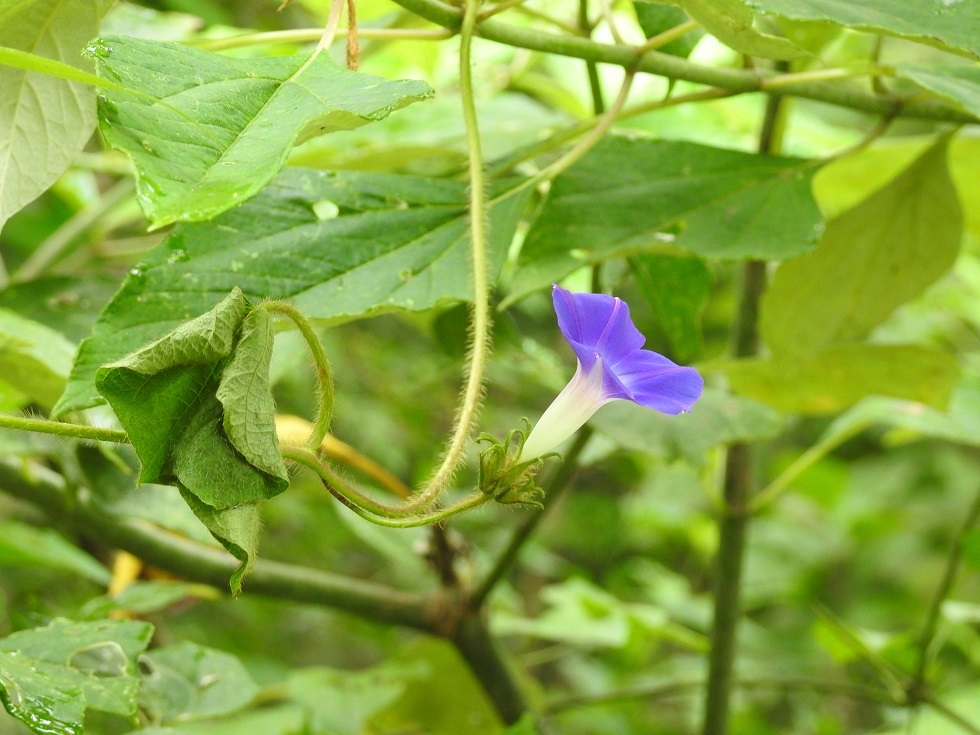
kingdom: Plantae
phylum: Tracheophyta
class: Magnoliopsida
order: Solanales
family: Convolvulaceae
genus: Ipomoea
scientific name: Ipomoea hederacea
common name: Ivy-leaved morning-glory
